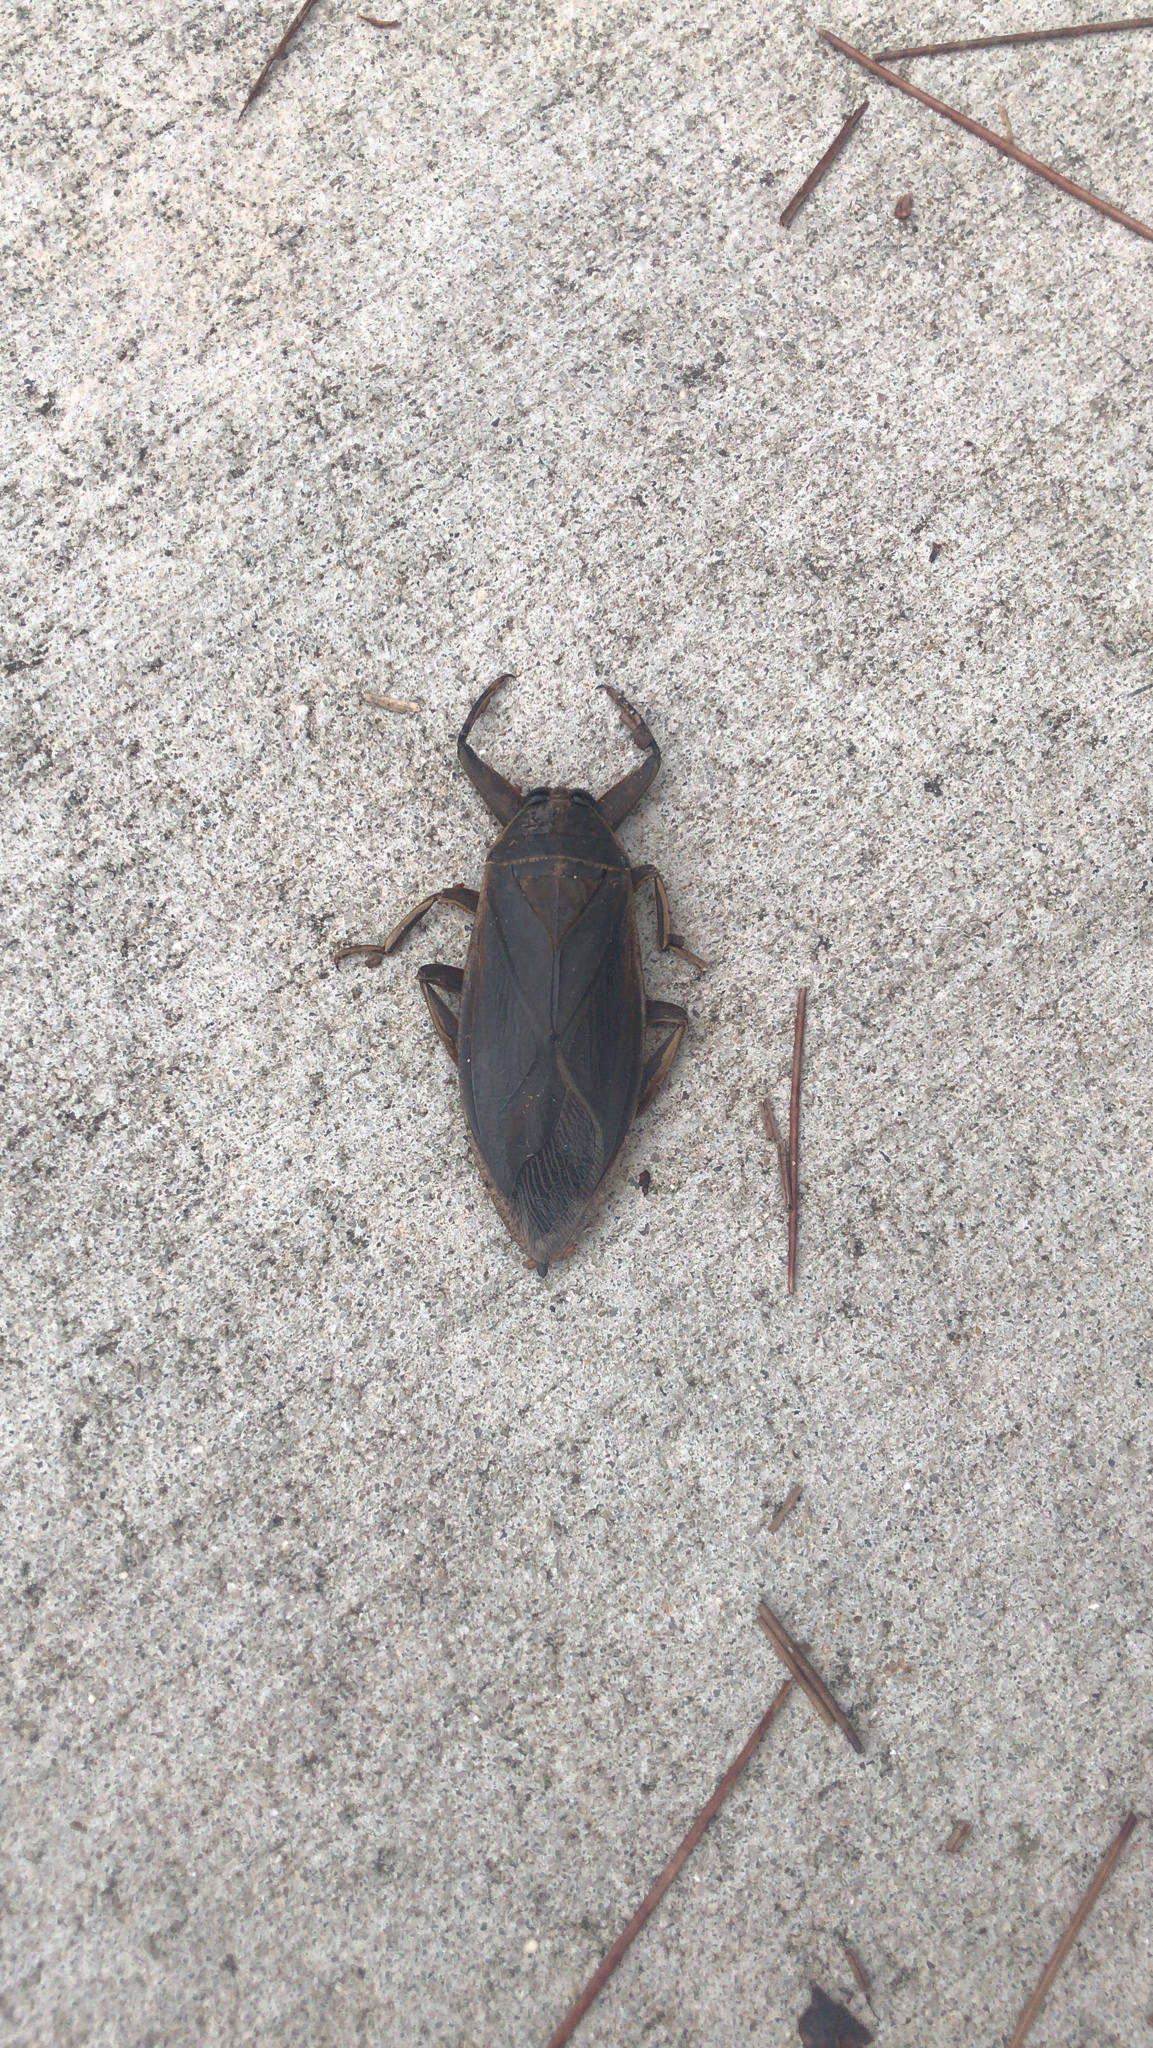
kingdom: Animalia
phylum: Arthropoda
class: Insecta
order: Hemiptera
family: Belostomatidae
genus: Benacus
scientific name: Benacus griseus
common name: Eastern toe-biter
